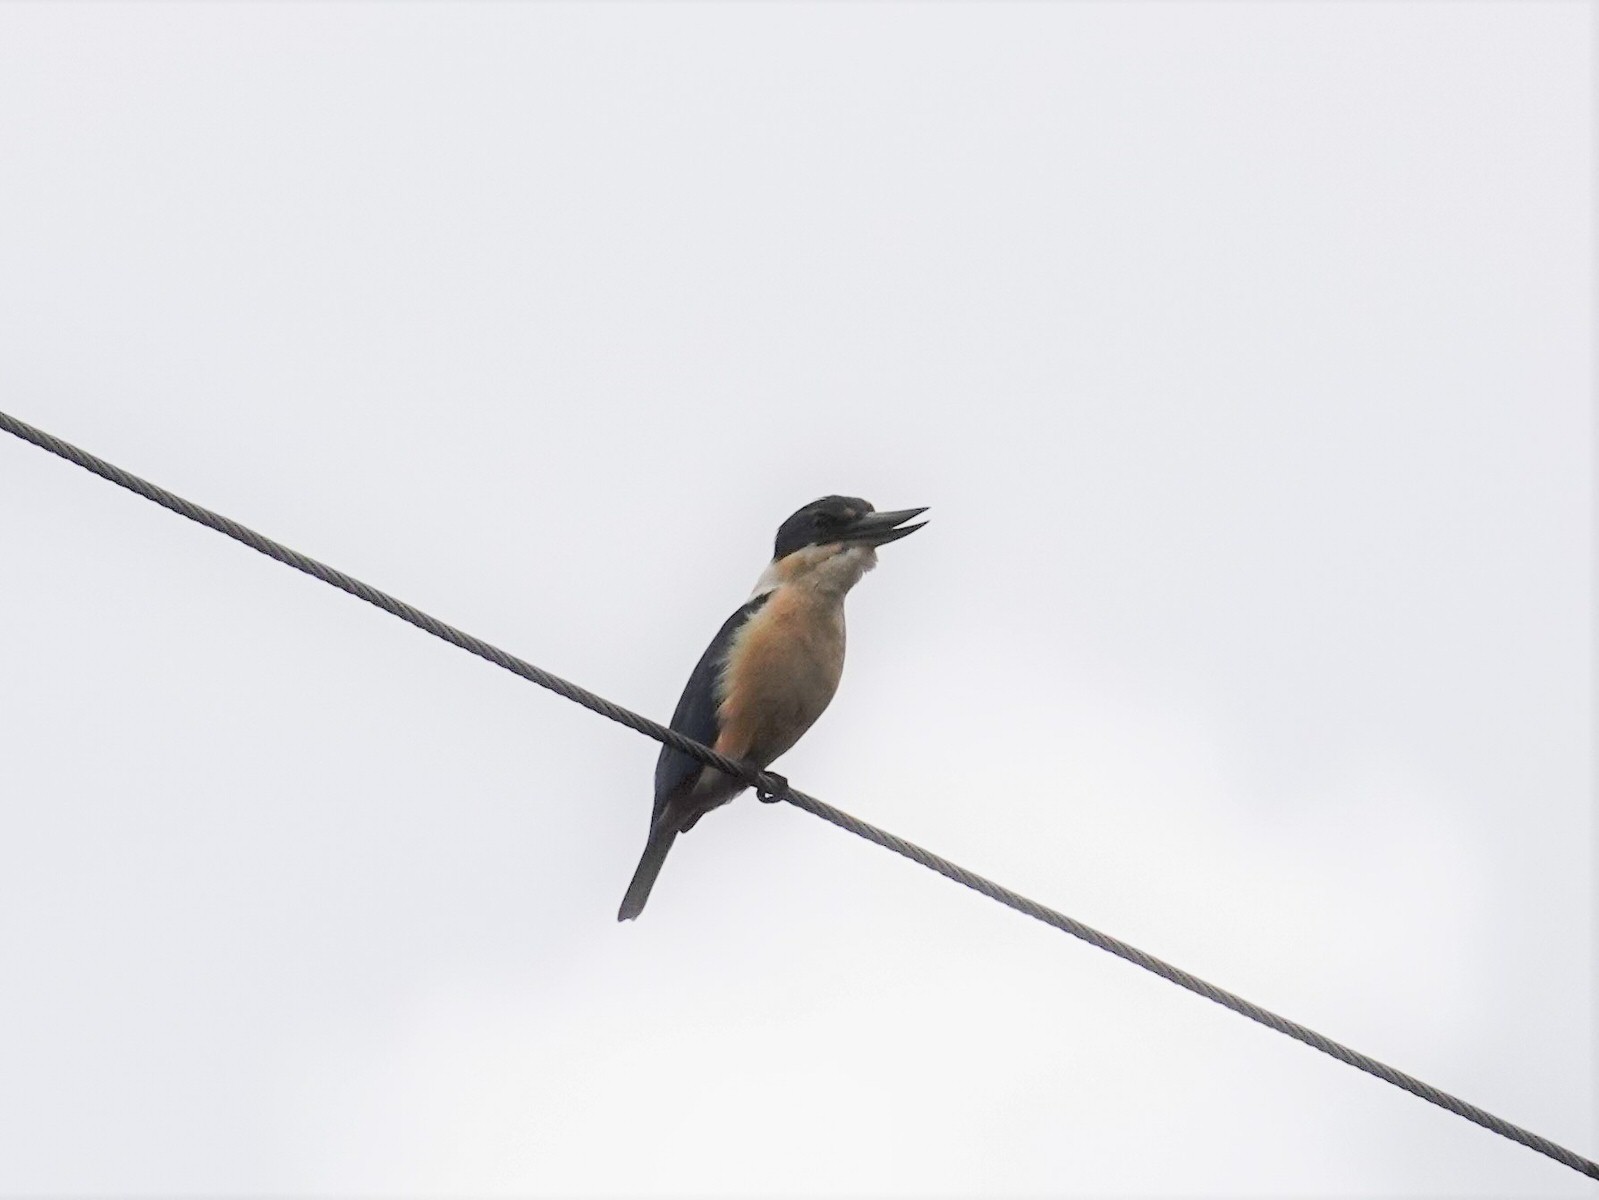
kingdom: Animalia
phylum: Chordata
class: Aves
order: Coraciiformes
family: Alcedinidae
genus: Todiramphus
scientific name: Todiramphus sanctus
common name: Sacred kingfisher
